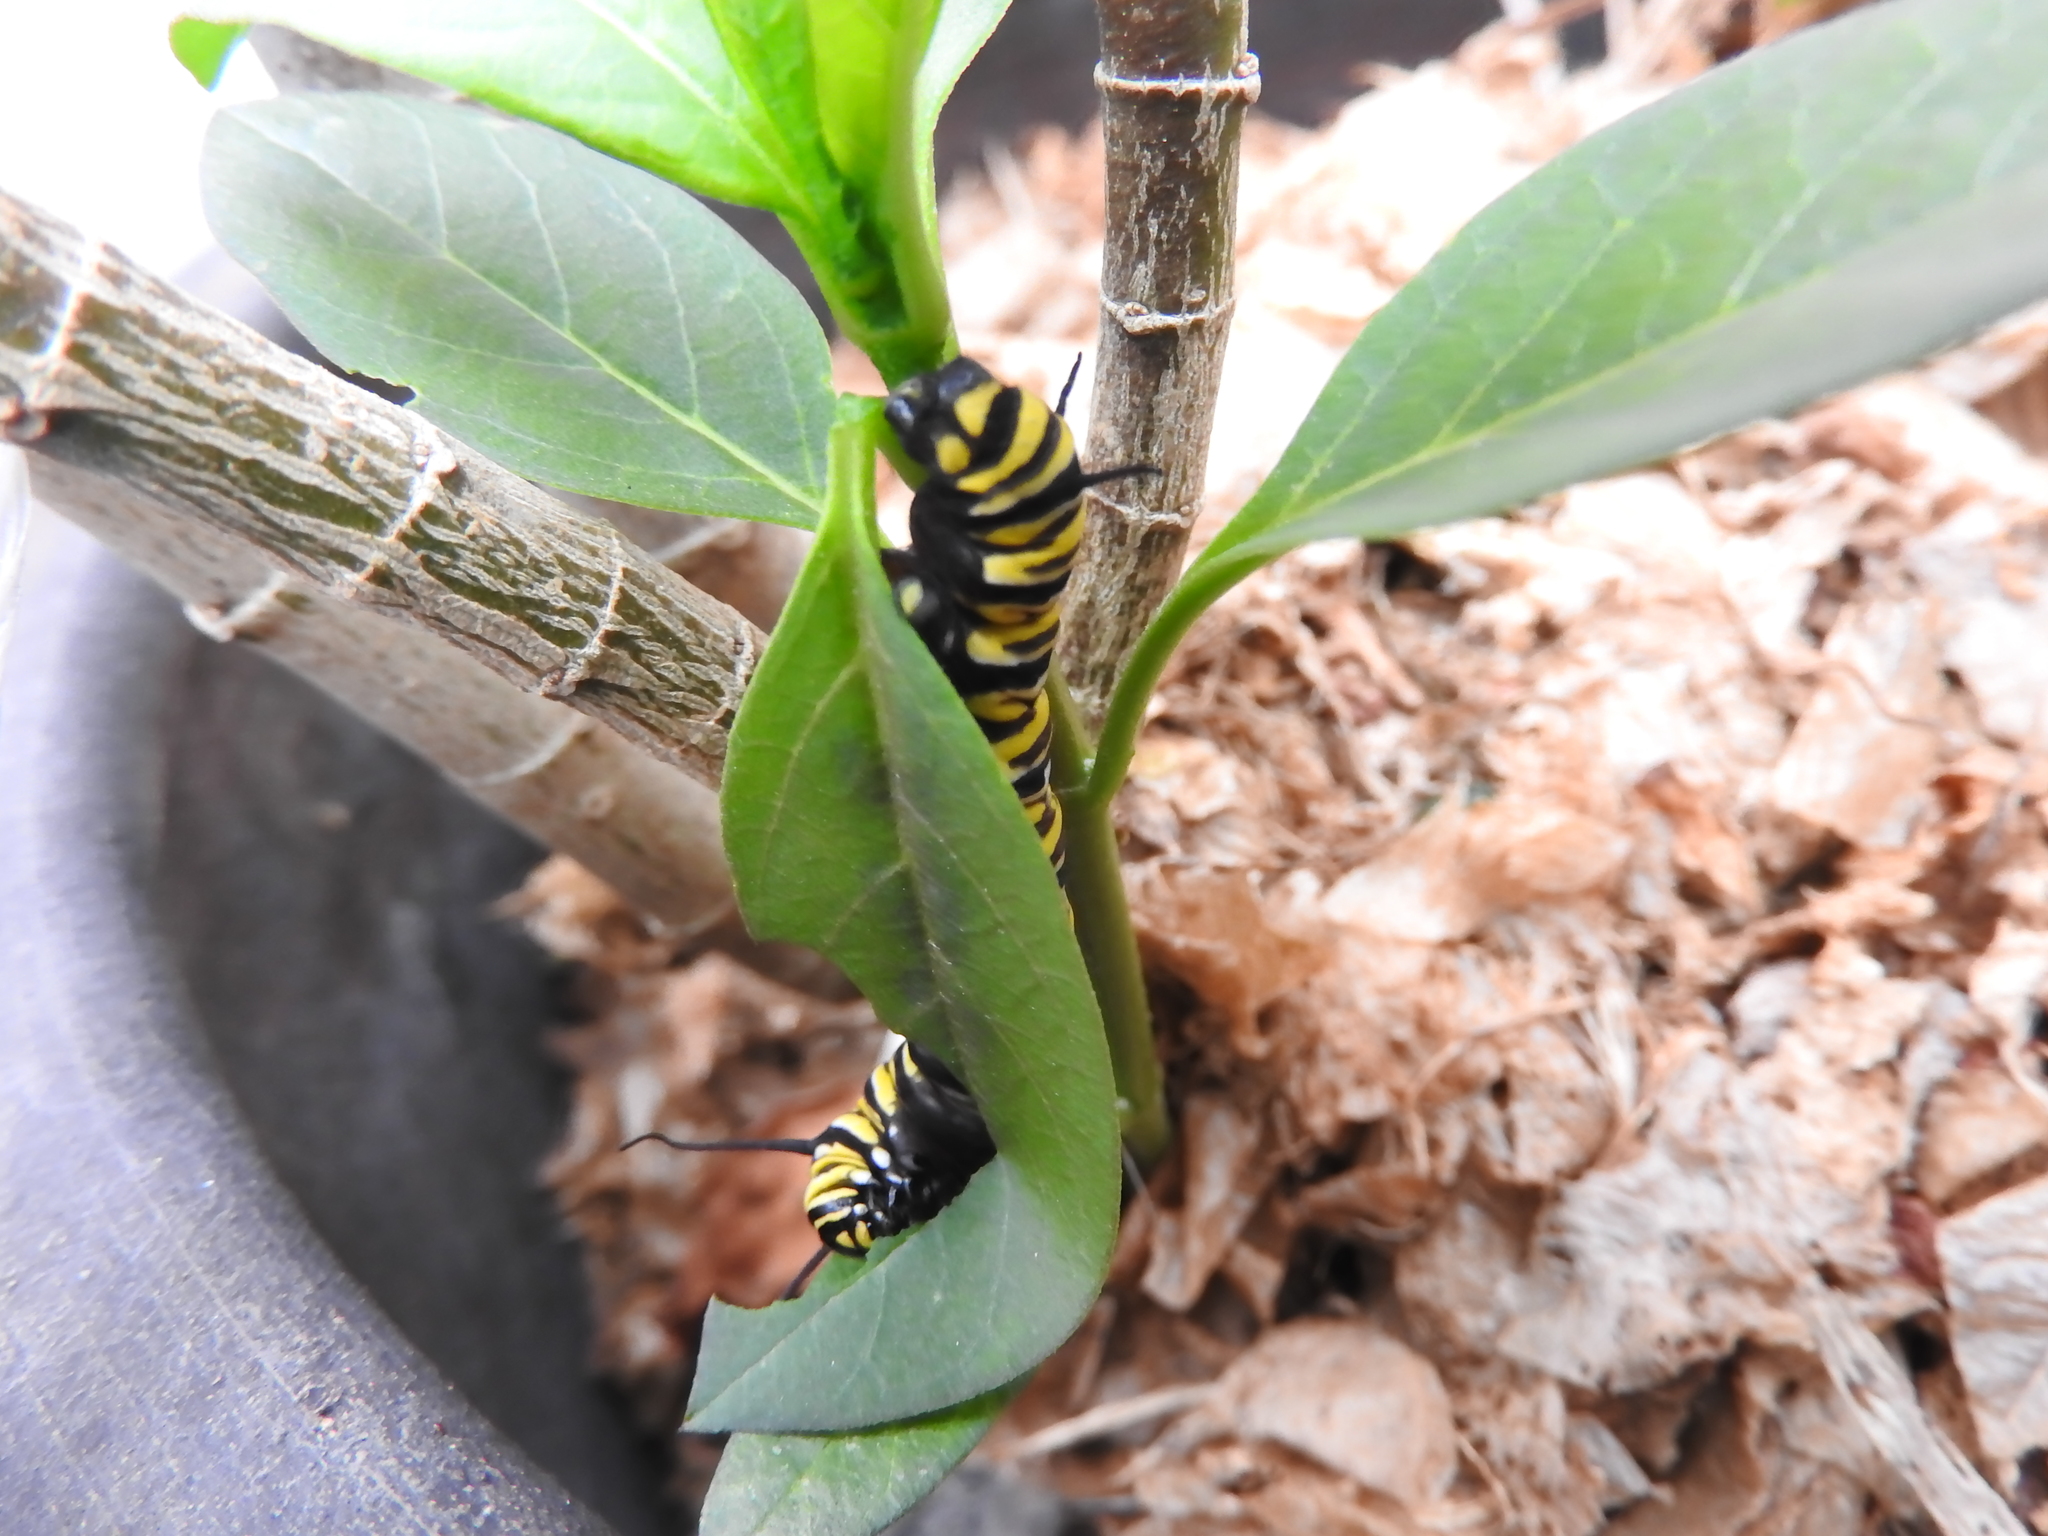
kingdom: Animalia
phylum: Arthropoda
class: Insecta
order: Lepidoptera
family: Nymphalidae
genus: Danaus
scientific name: Danaus plexippus
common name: Monarch
